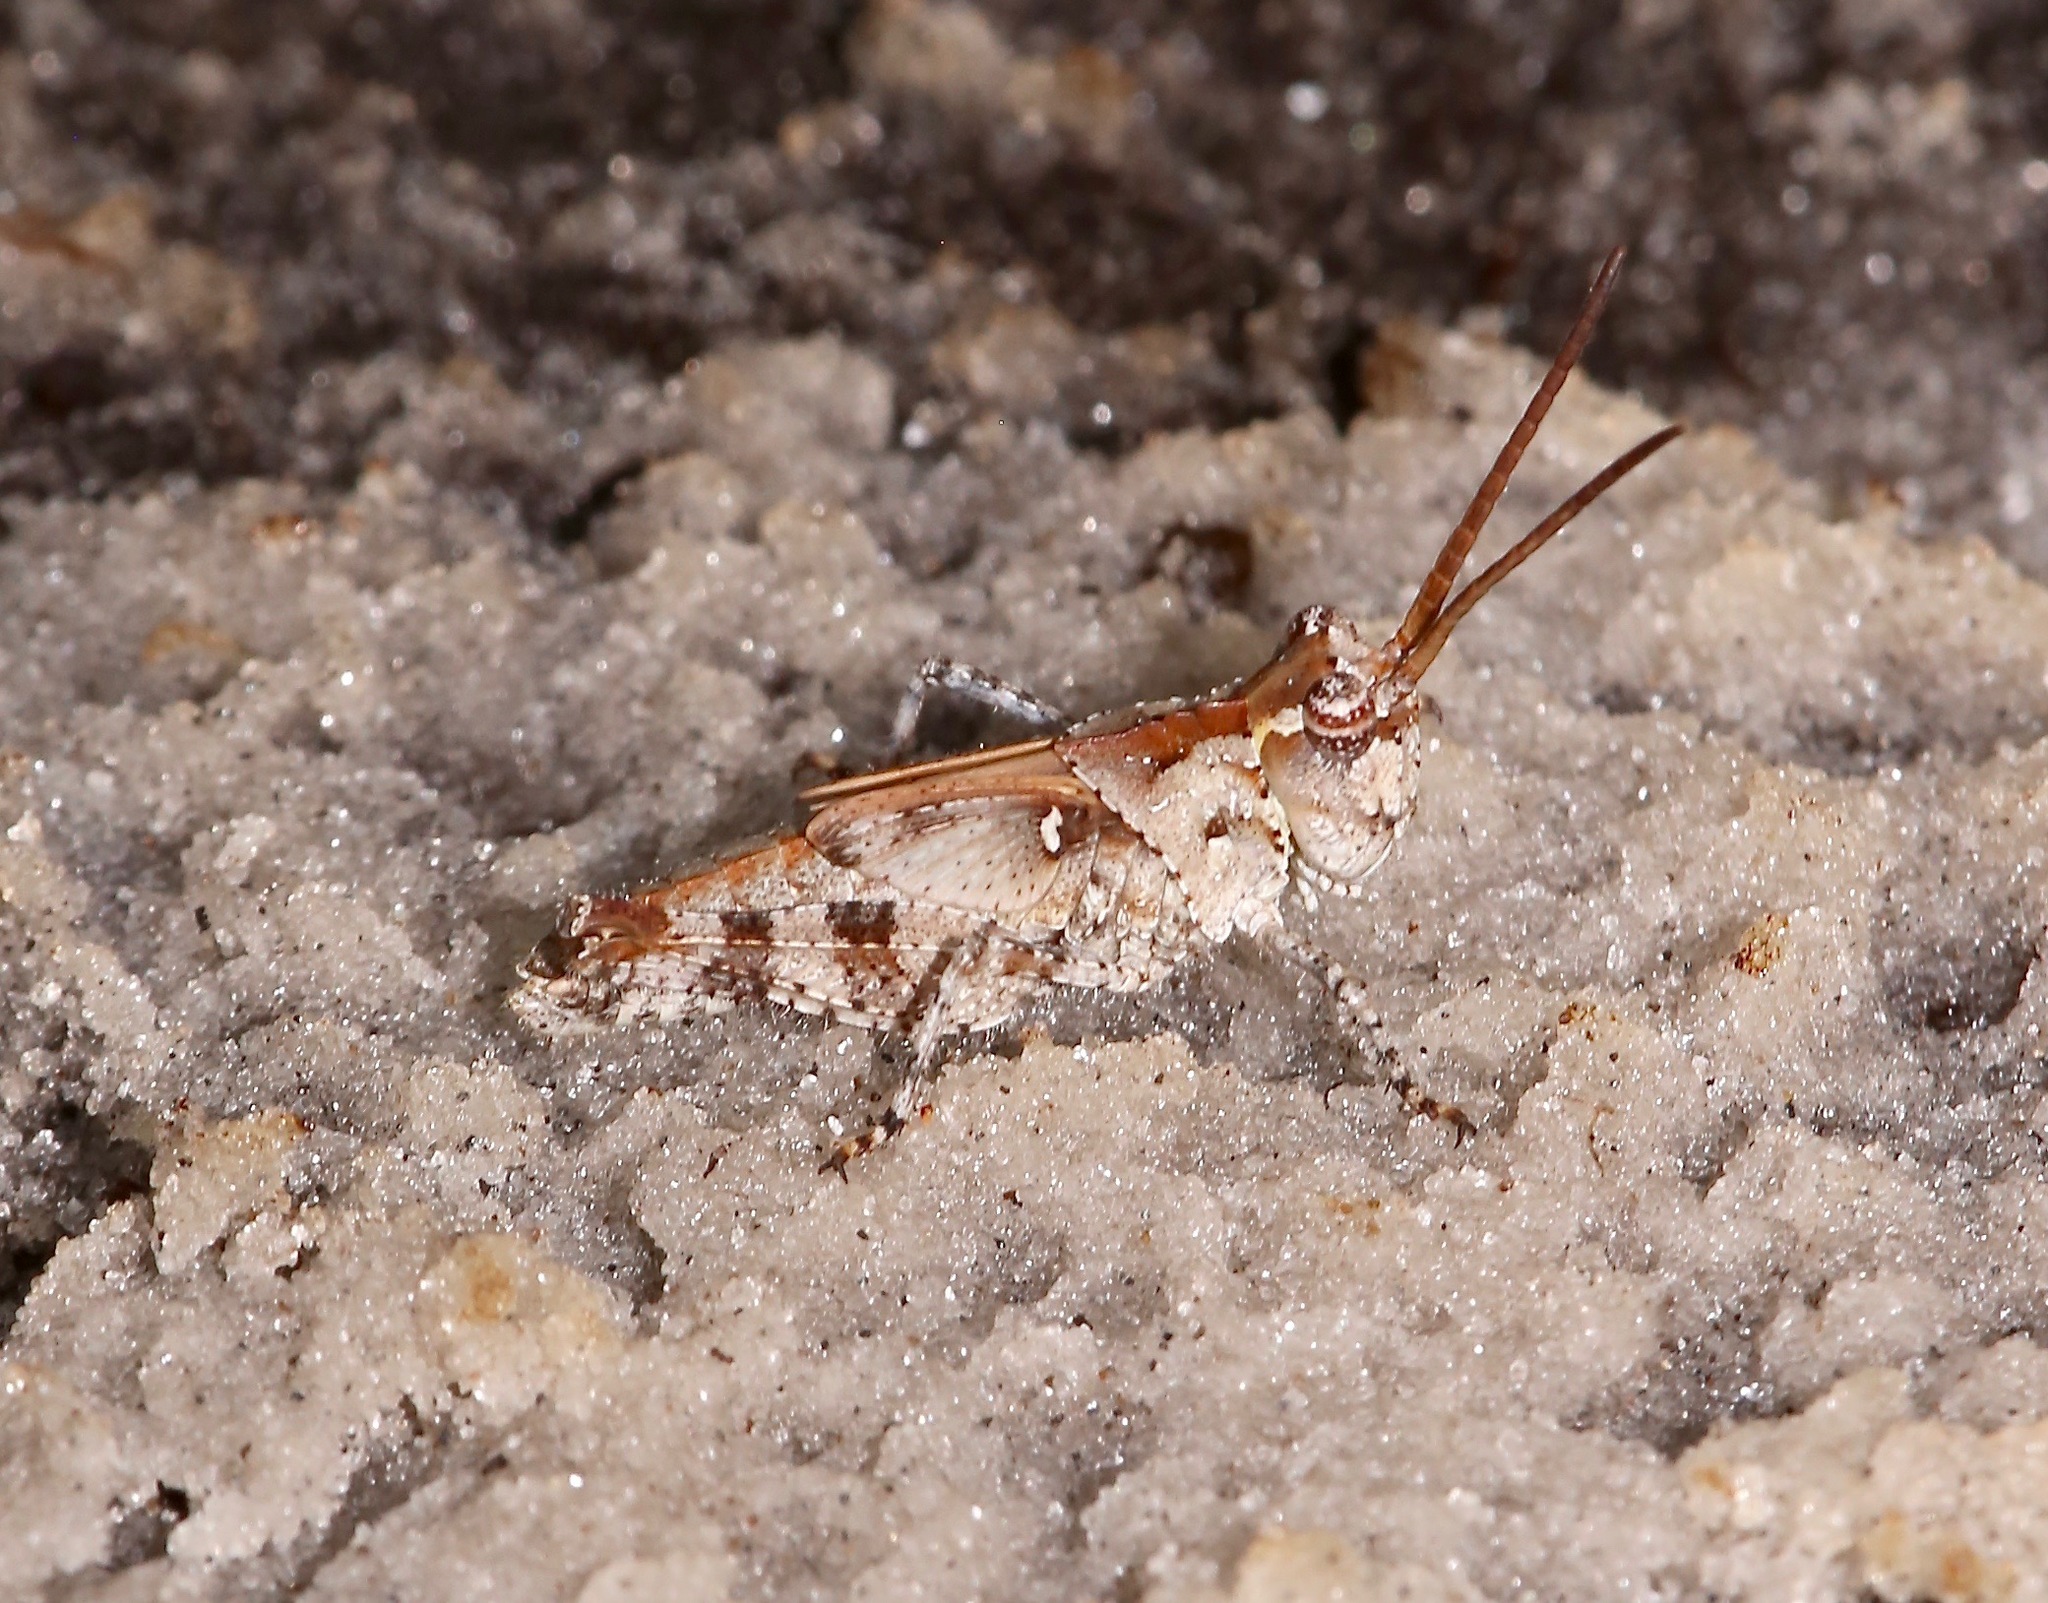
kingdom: Animalia
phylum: Arthropoda
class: Insecta
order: Orthoptera
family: Acrididae
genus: Psinidia
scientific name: Psinidia fenestralis
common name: Long-horned locust
